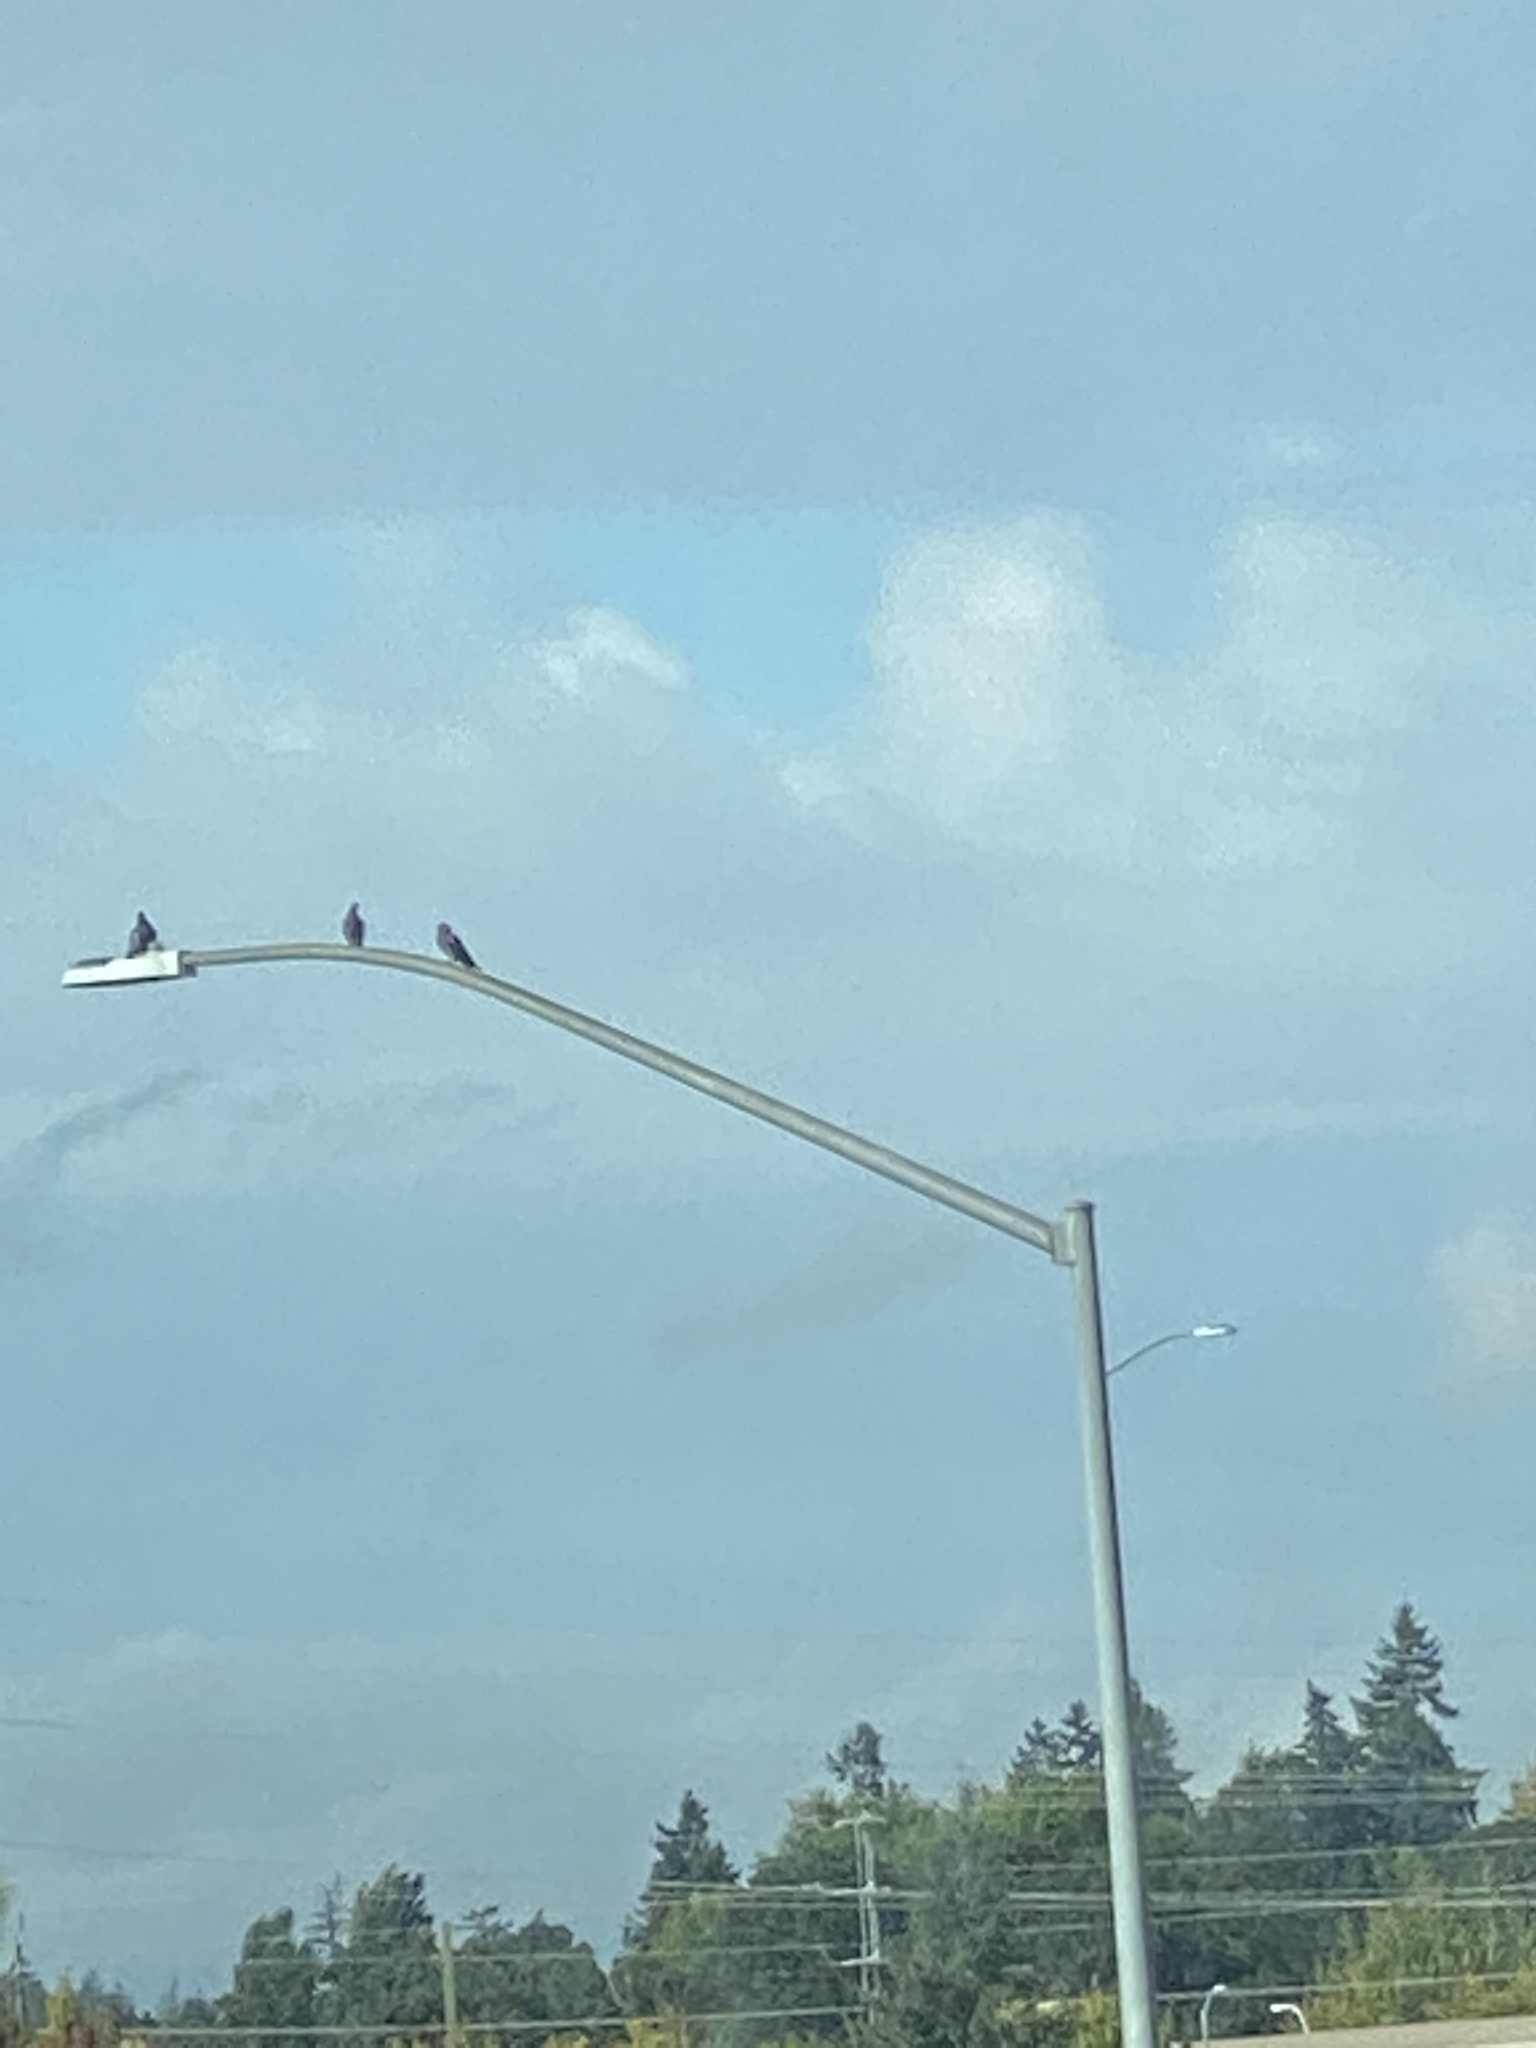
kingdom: Animalia
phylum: Chordata
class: Aves
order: Columbiformes
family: Columbidae
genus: Columba
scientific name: Columba livia
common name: Rock pigeon
